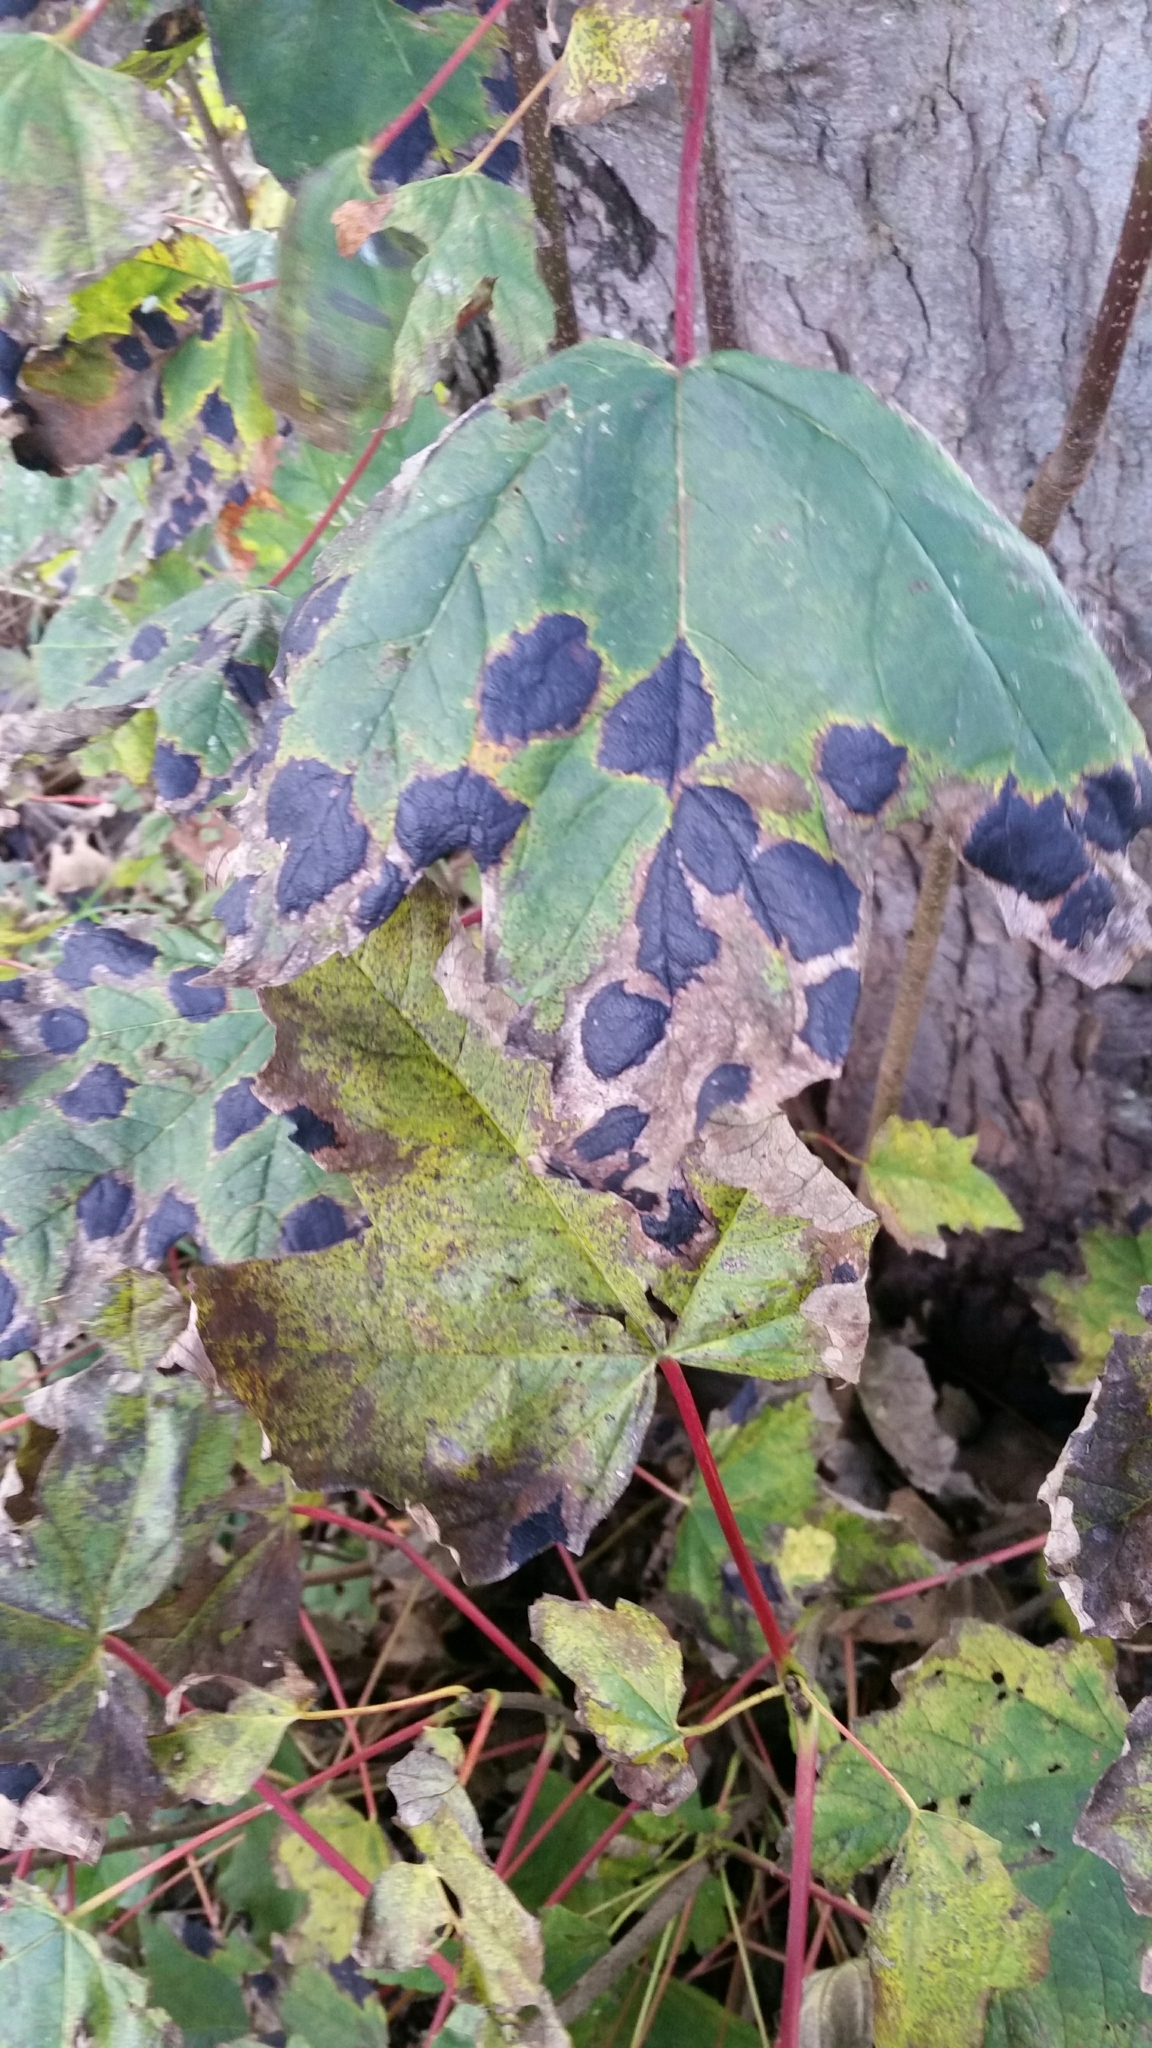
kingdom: Fungi
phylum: Ascomycota
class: Leotiomycetes
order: Rhytismatales
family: Rhytismataceae
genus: Rhytisma
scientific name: Rhytisma acerinum
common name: European tar spot
